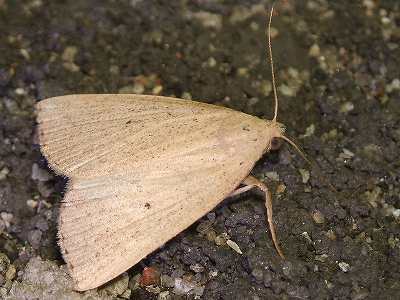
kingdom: Animalia
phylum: Arthropoda
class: Insecta
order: Lepidoptera
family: Erebidae
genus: Stenhypena
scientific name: Stenhypena
